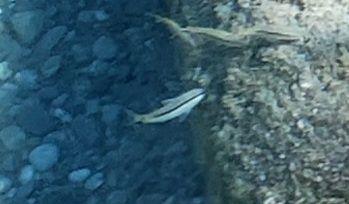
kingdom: Animalia
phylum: Chordata
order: Perciformes
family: Mullidae
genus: Parupeneus
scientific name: Parupeneus forsskali
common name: Red sea goatfish
